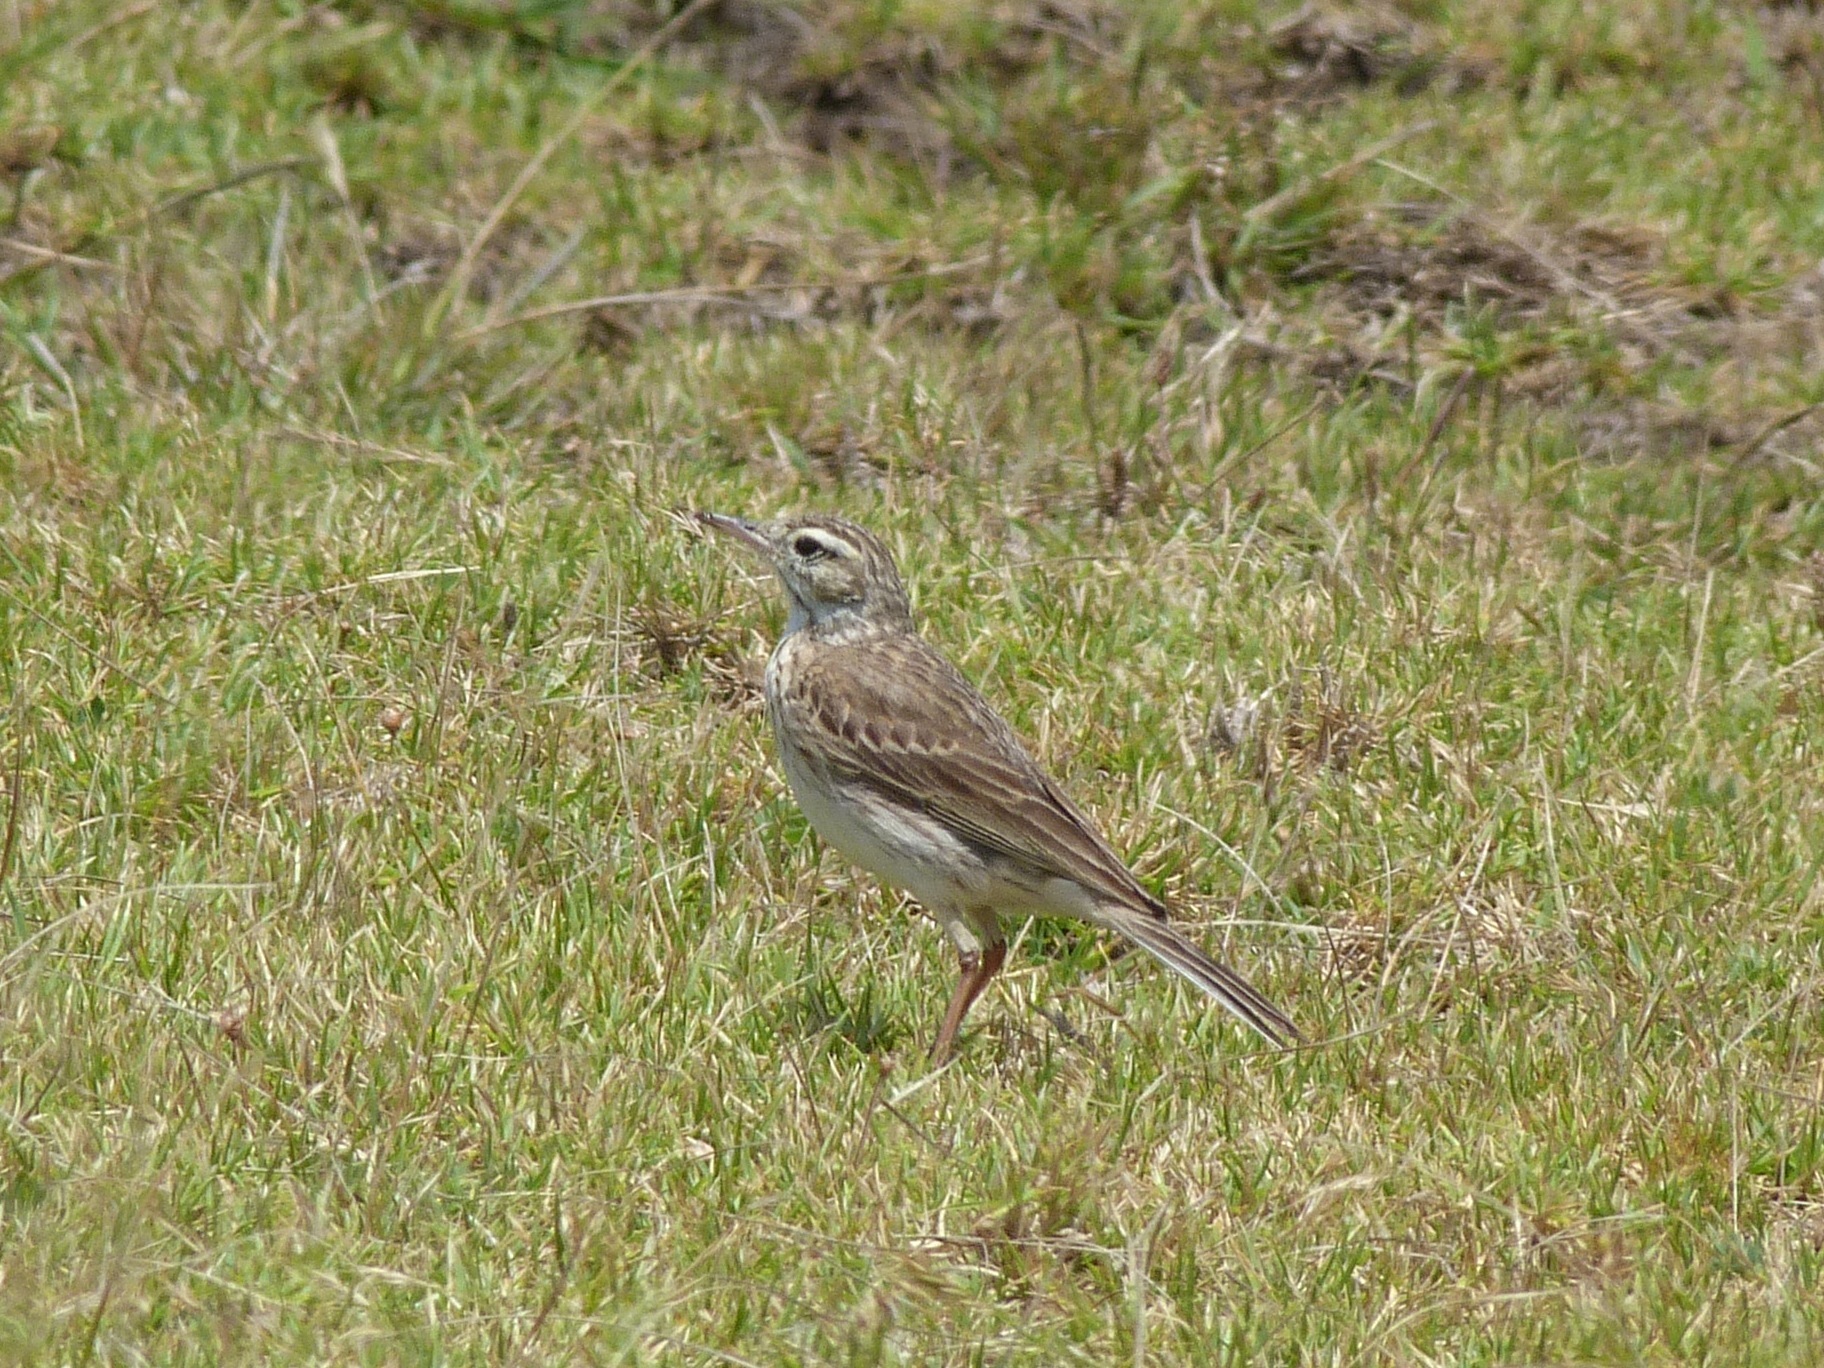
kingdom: Animalia
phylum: Chordata
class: Aves
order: Passeriformes
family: Motacillidae
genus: Anthus
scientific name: Anthus australis
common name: Australian pipit
